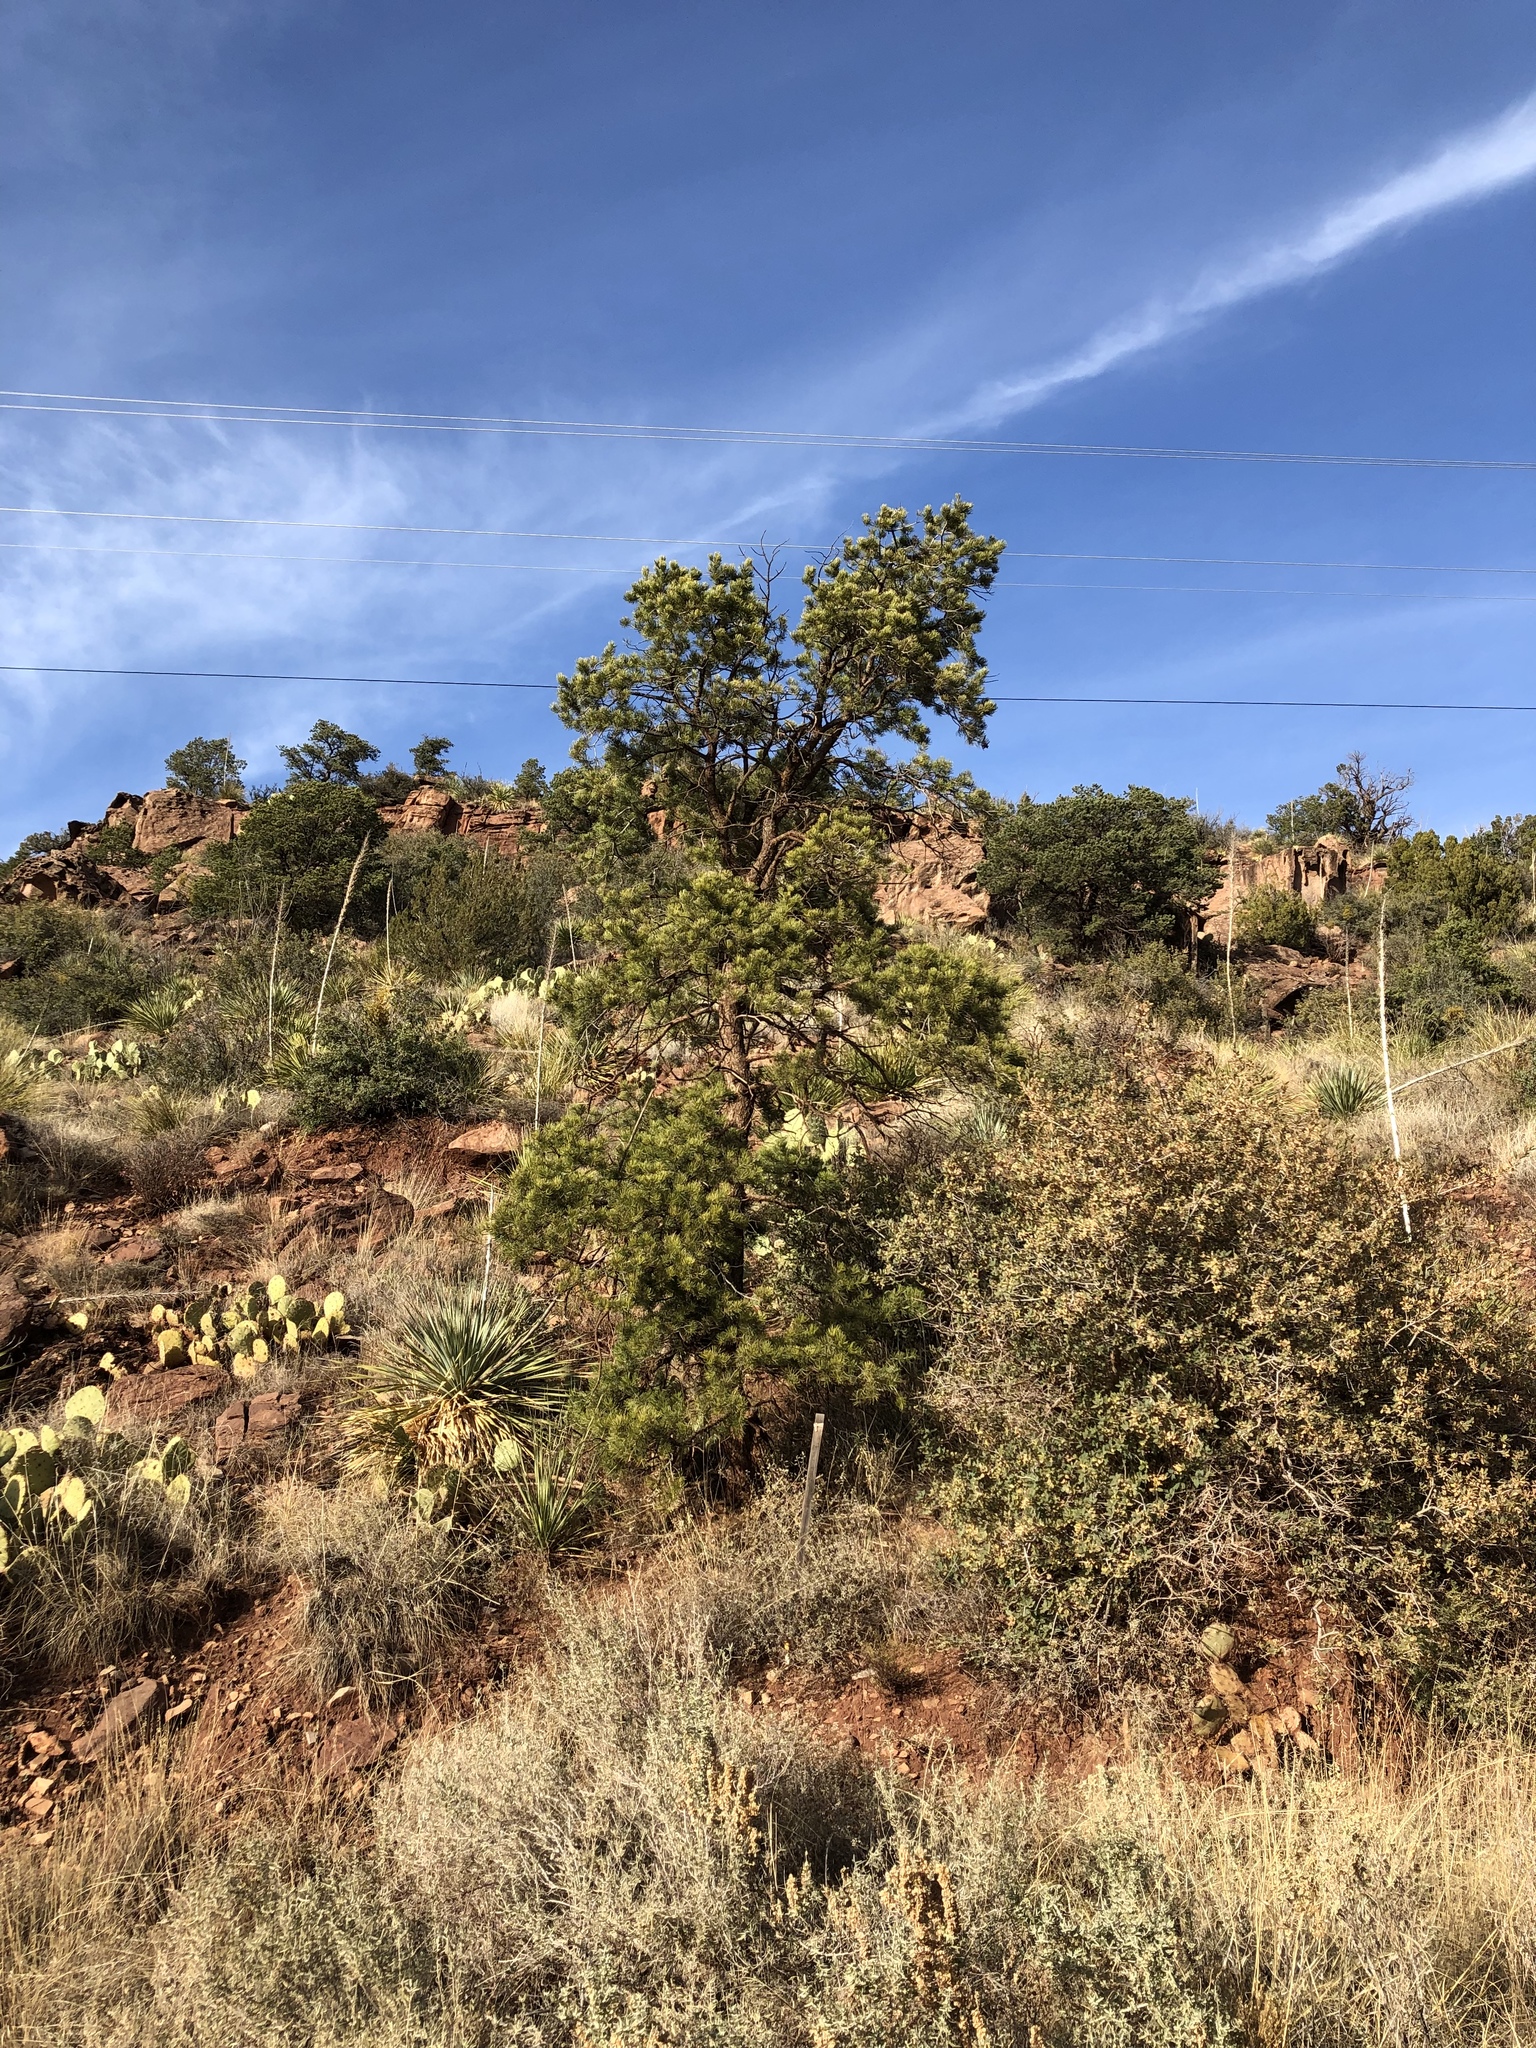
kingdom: Plantae
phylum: Tracheophyta
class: Pinopsida
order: Pinales
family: Pinaceae
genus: Pinus
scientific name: Pinus edulis
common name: Colorado pinyon
